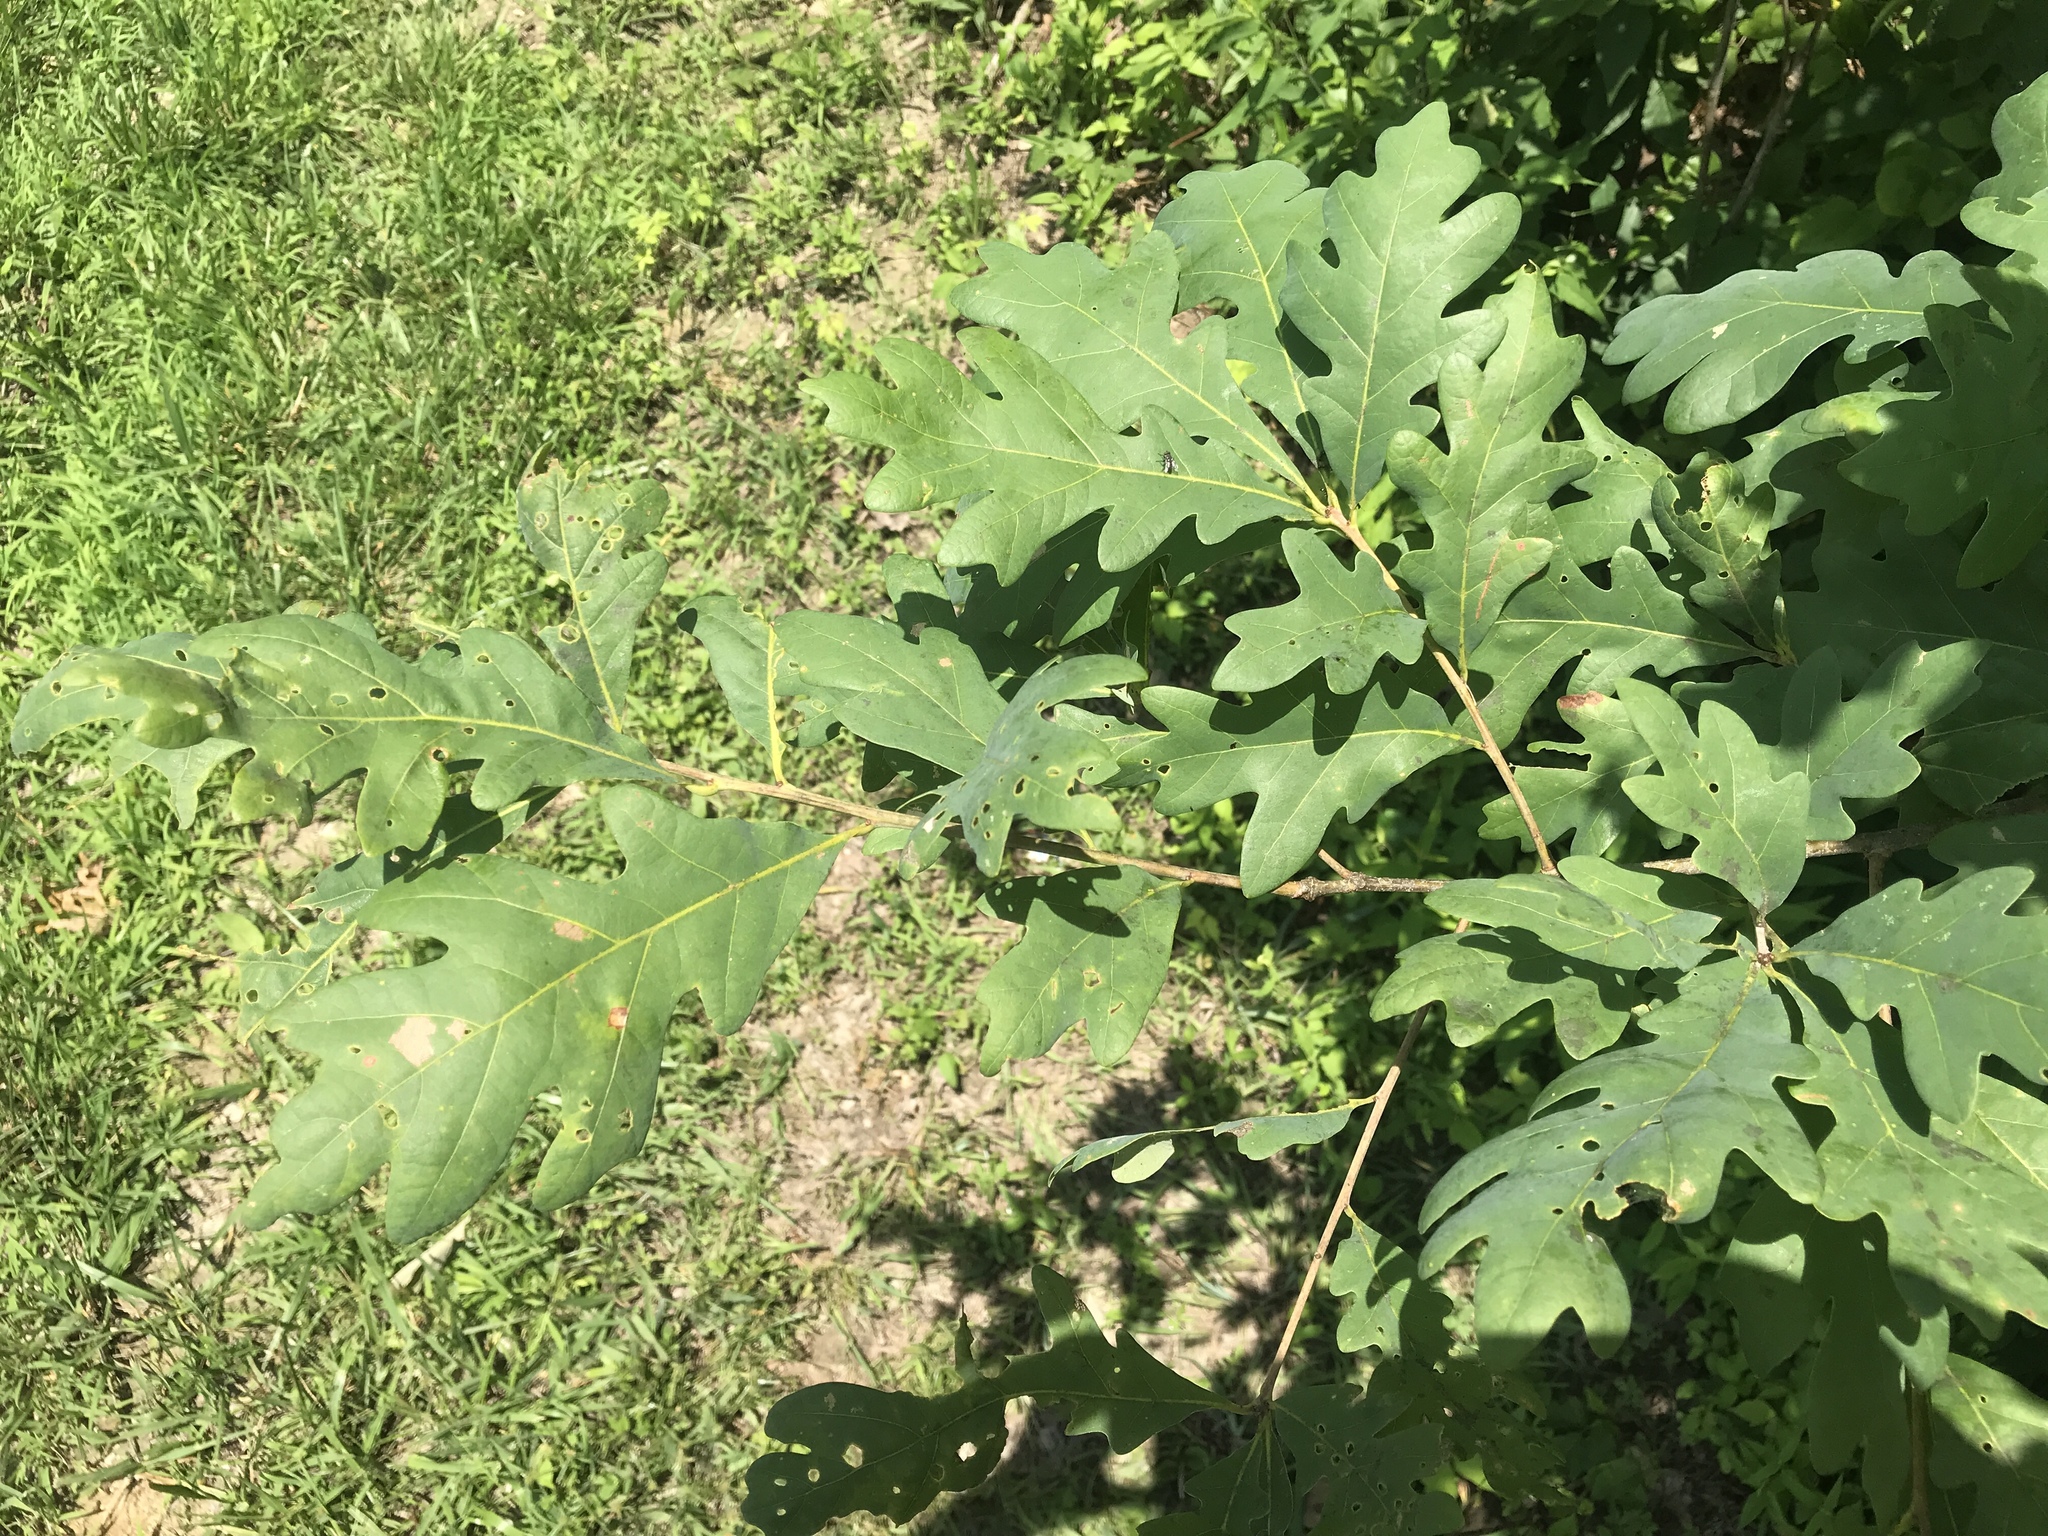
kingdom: Plantae
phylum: Tracheophyta
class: Magnoliopsida
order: Fagales
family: Fagaceae
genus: Quercus
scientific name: Quercus alba
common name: White oak
